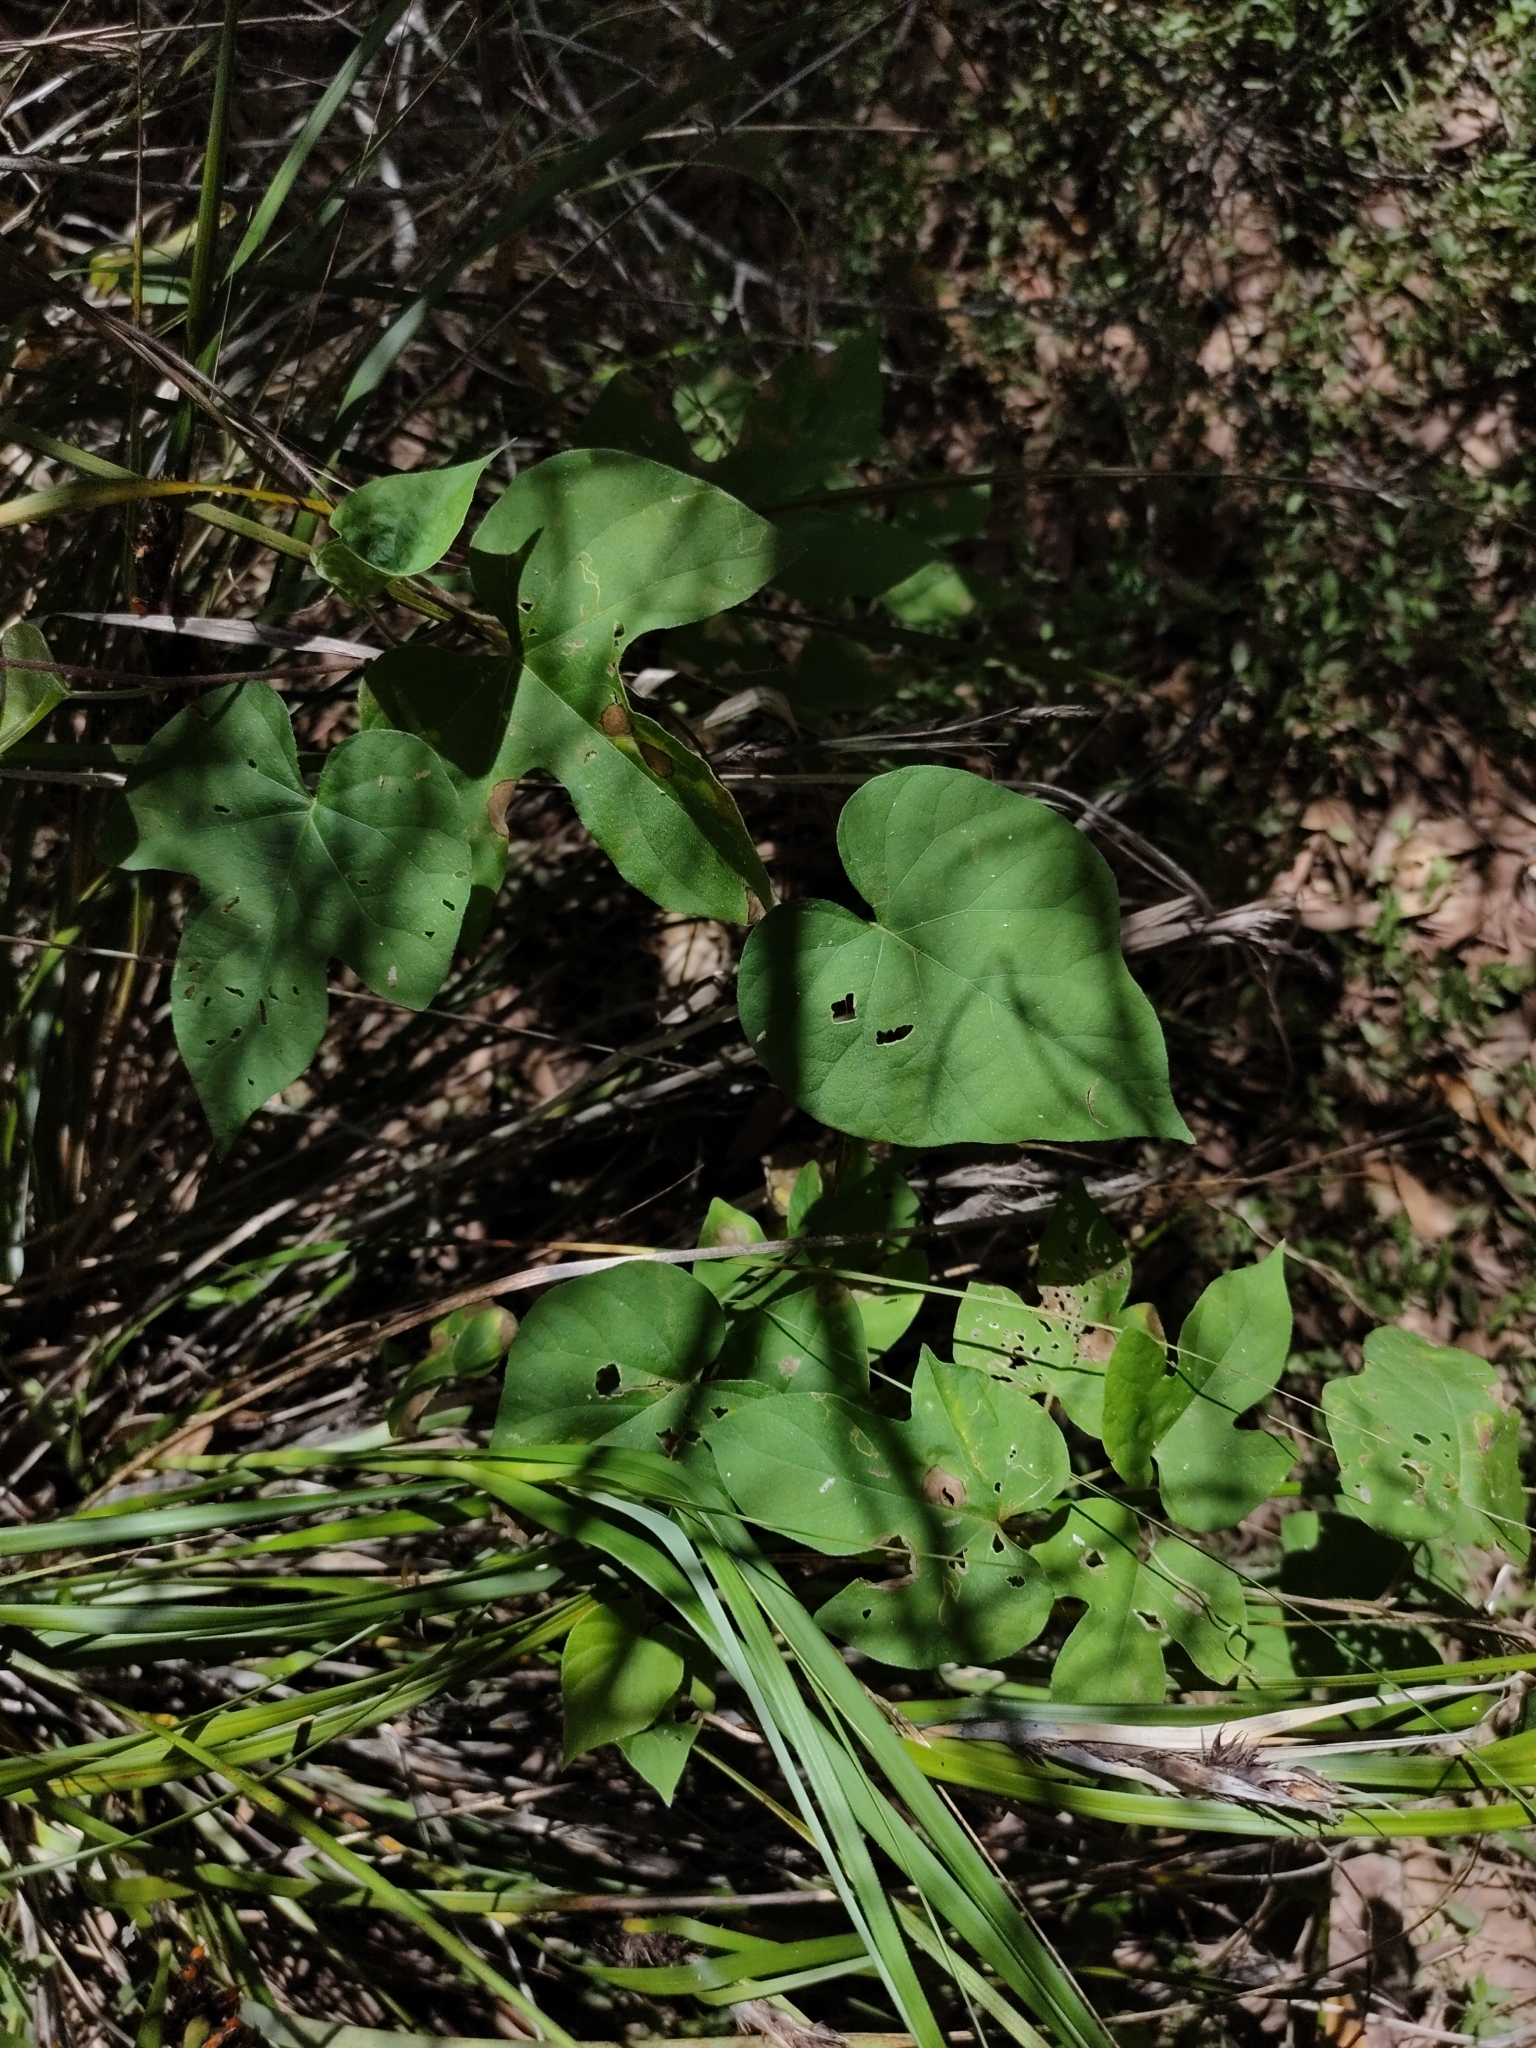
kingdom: Plantae
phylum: Tracheophyta
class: Magnoliopsida
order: Solanales
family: Convolvulaceae
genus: Ipomoea
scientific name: Ipomoea indica
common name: Blue dawnflower
